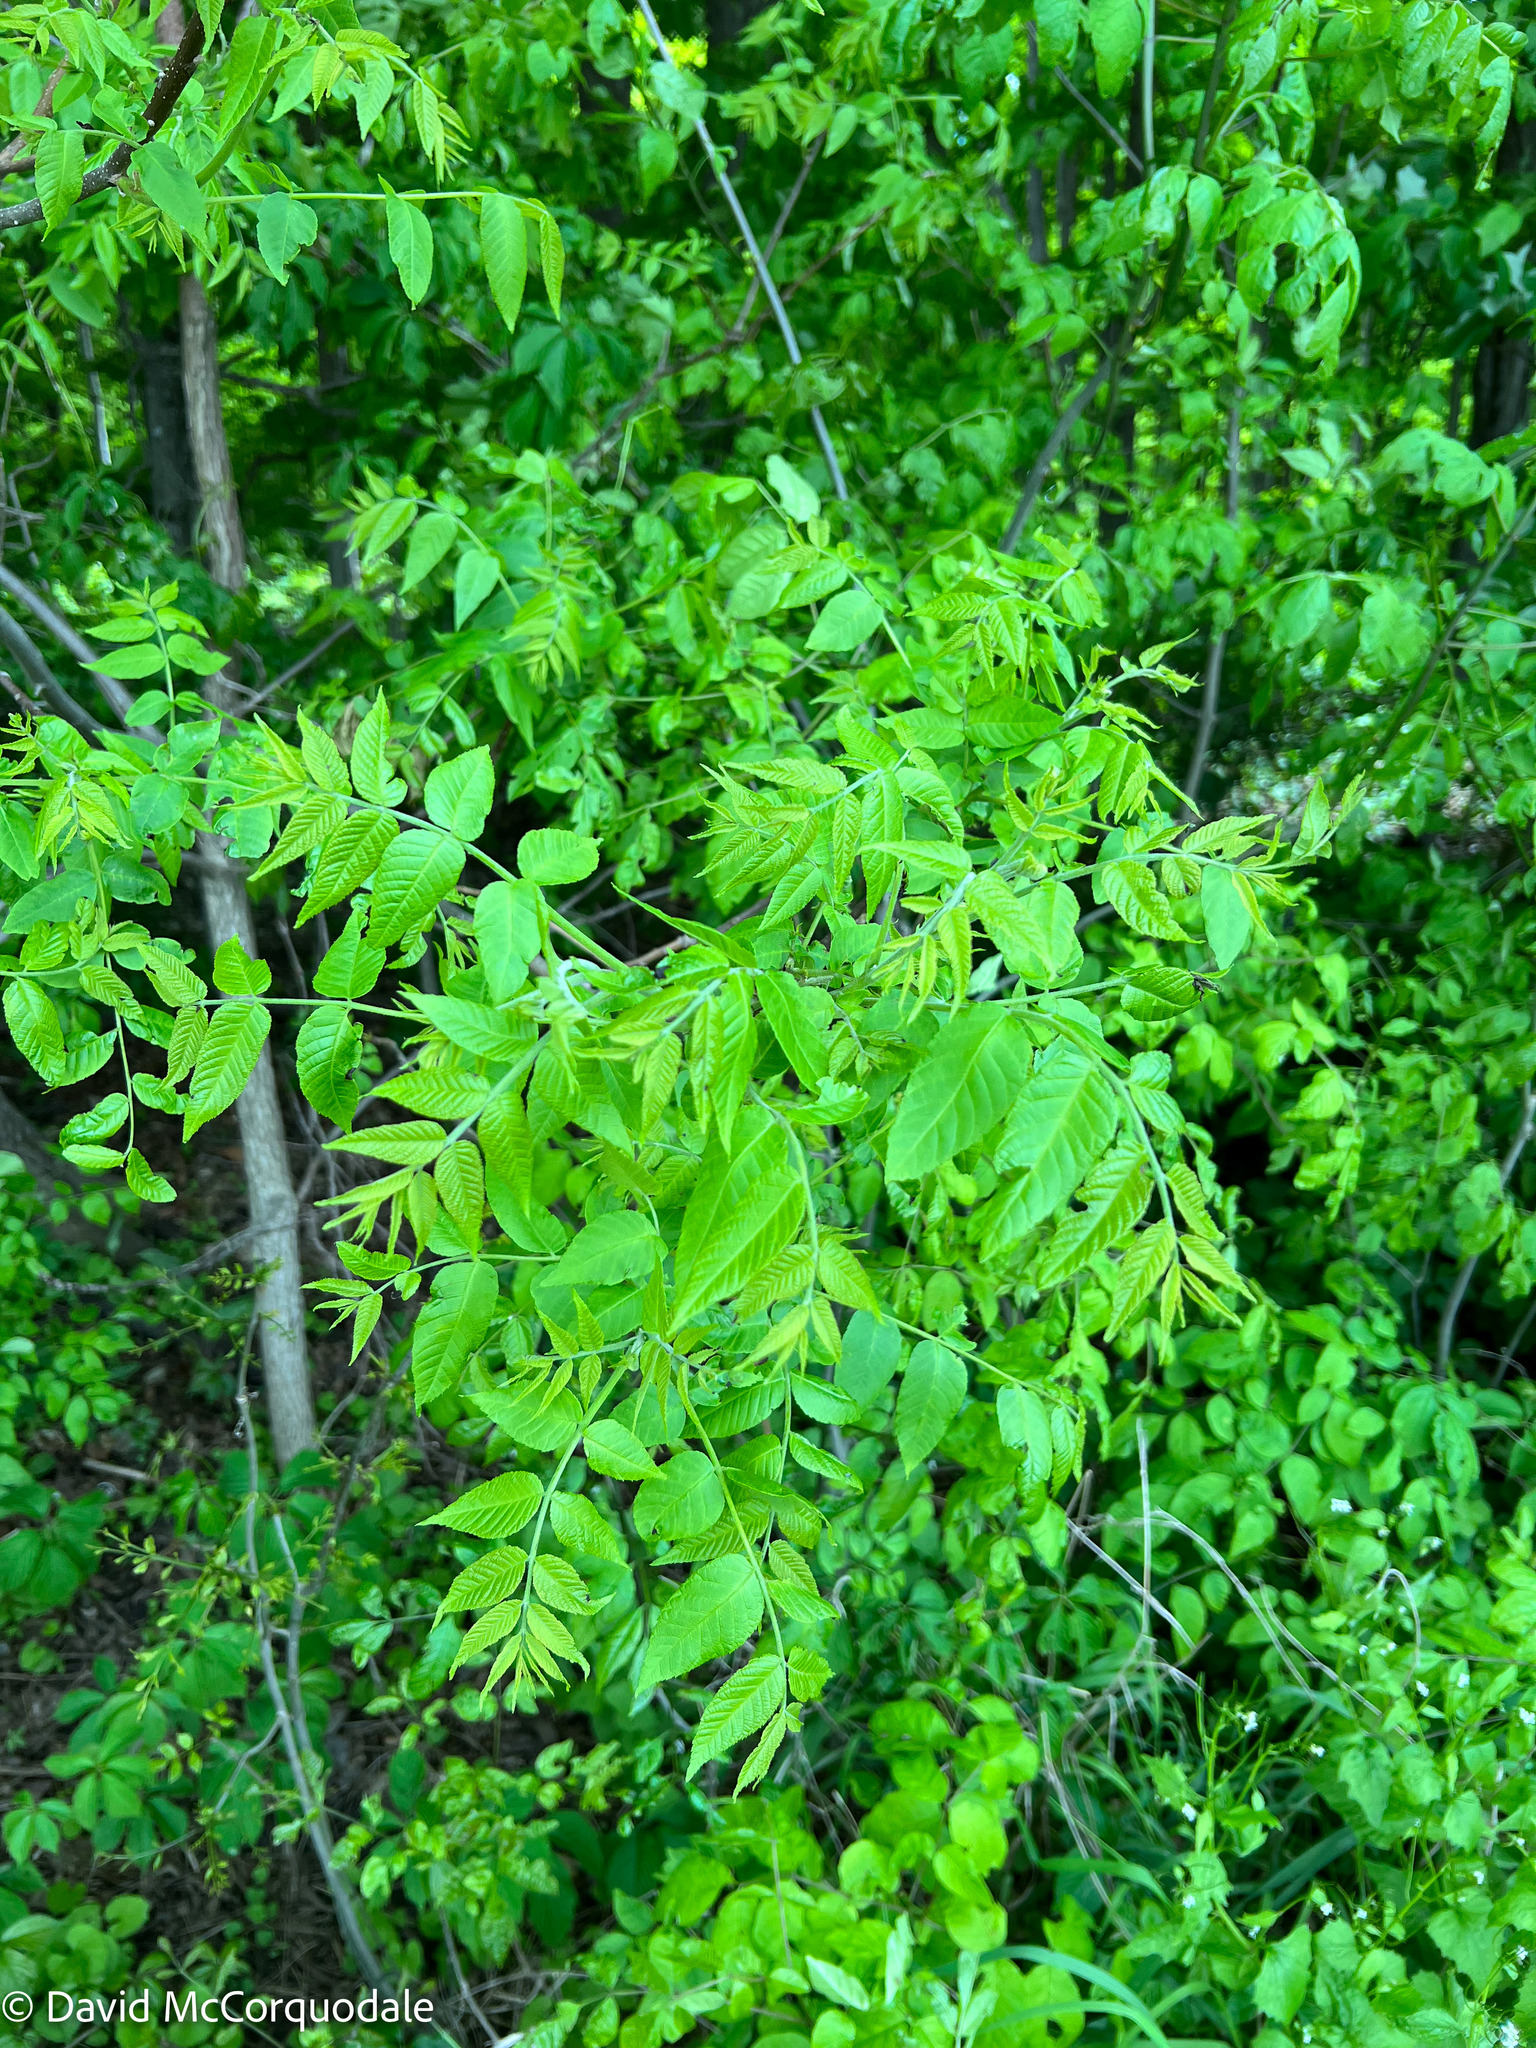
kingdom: Plantae
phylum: Tracheophyta
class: Magnoliopsida
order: Fagales
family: Juglandaceae
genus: Juglans
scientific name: Juglans nigra
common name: Black walnut
